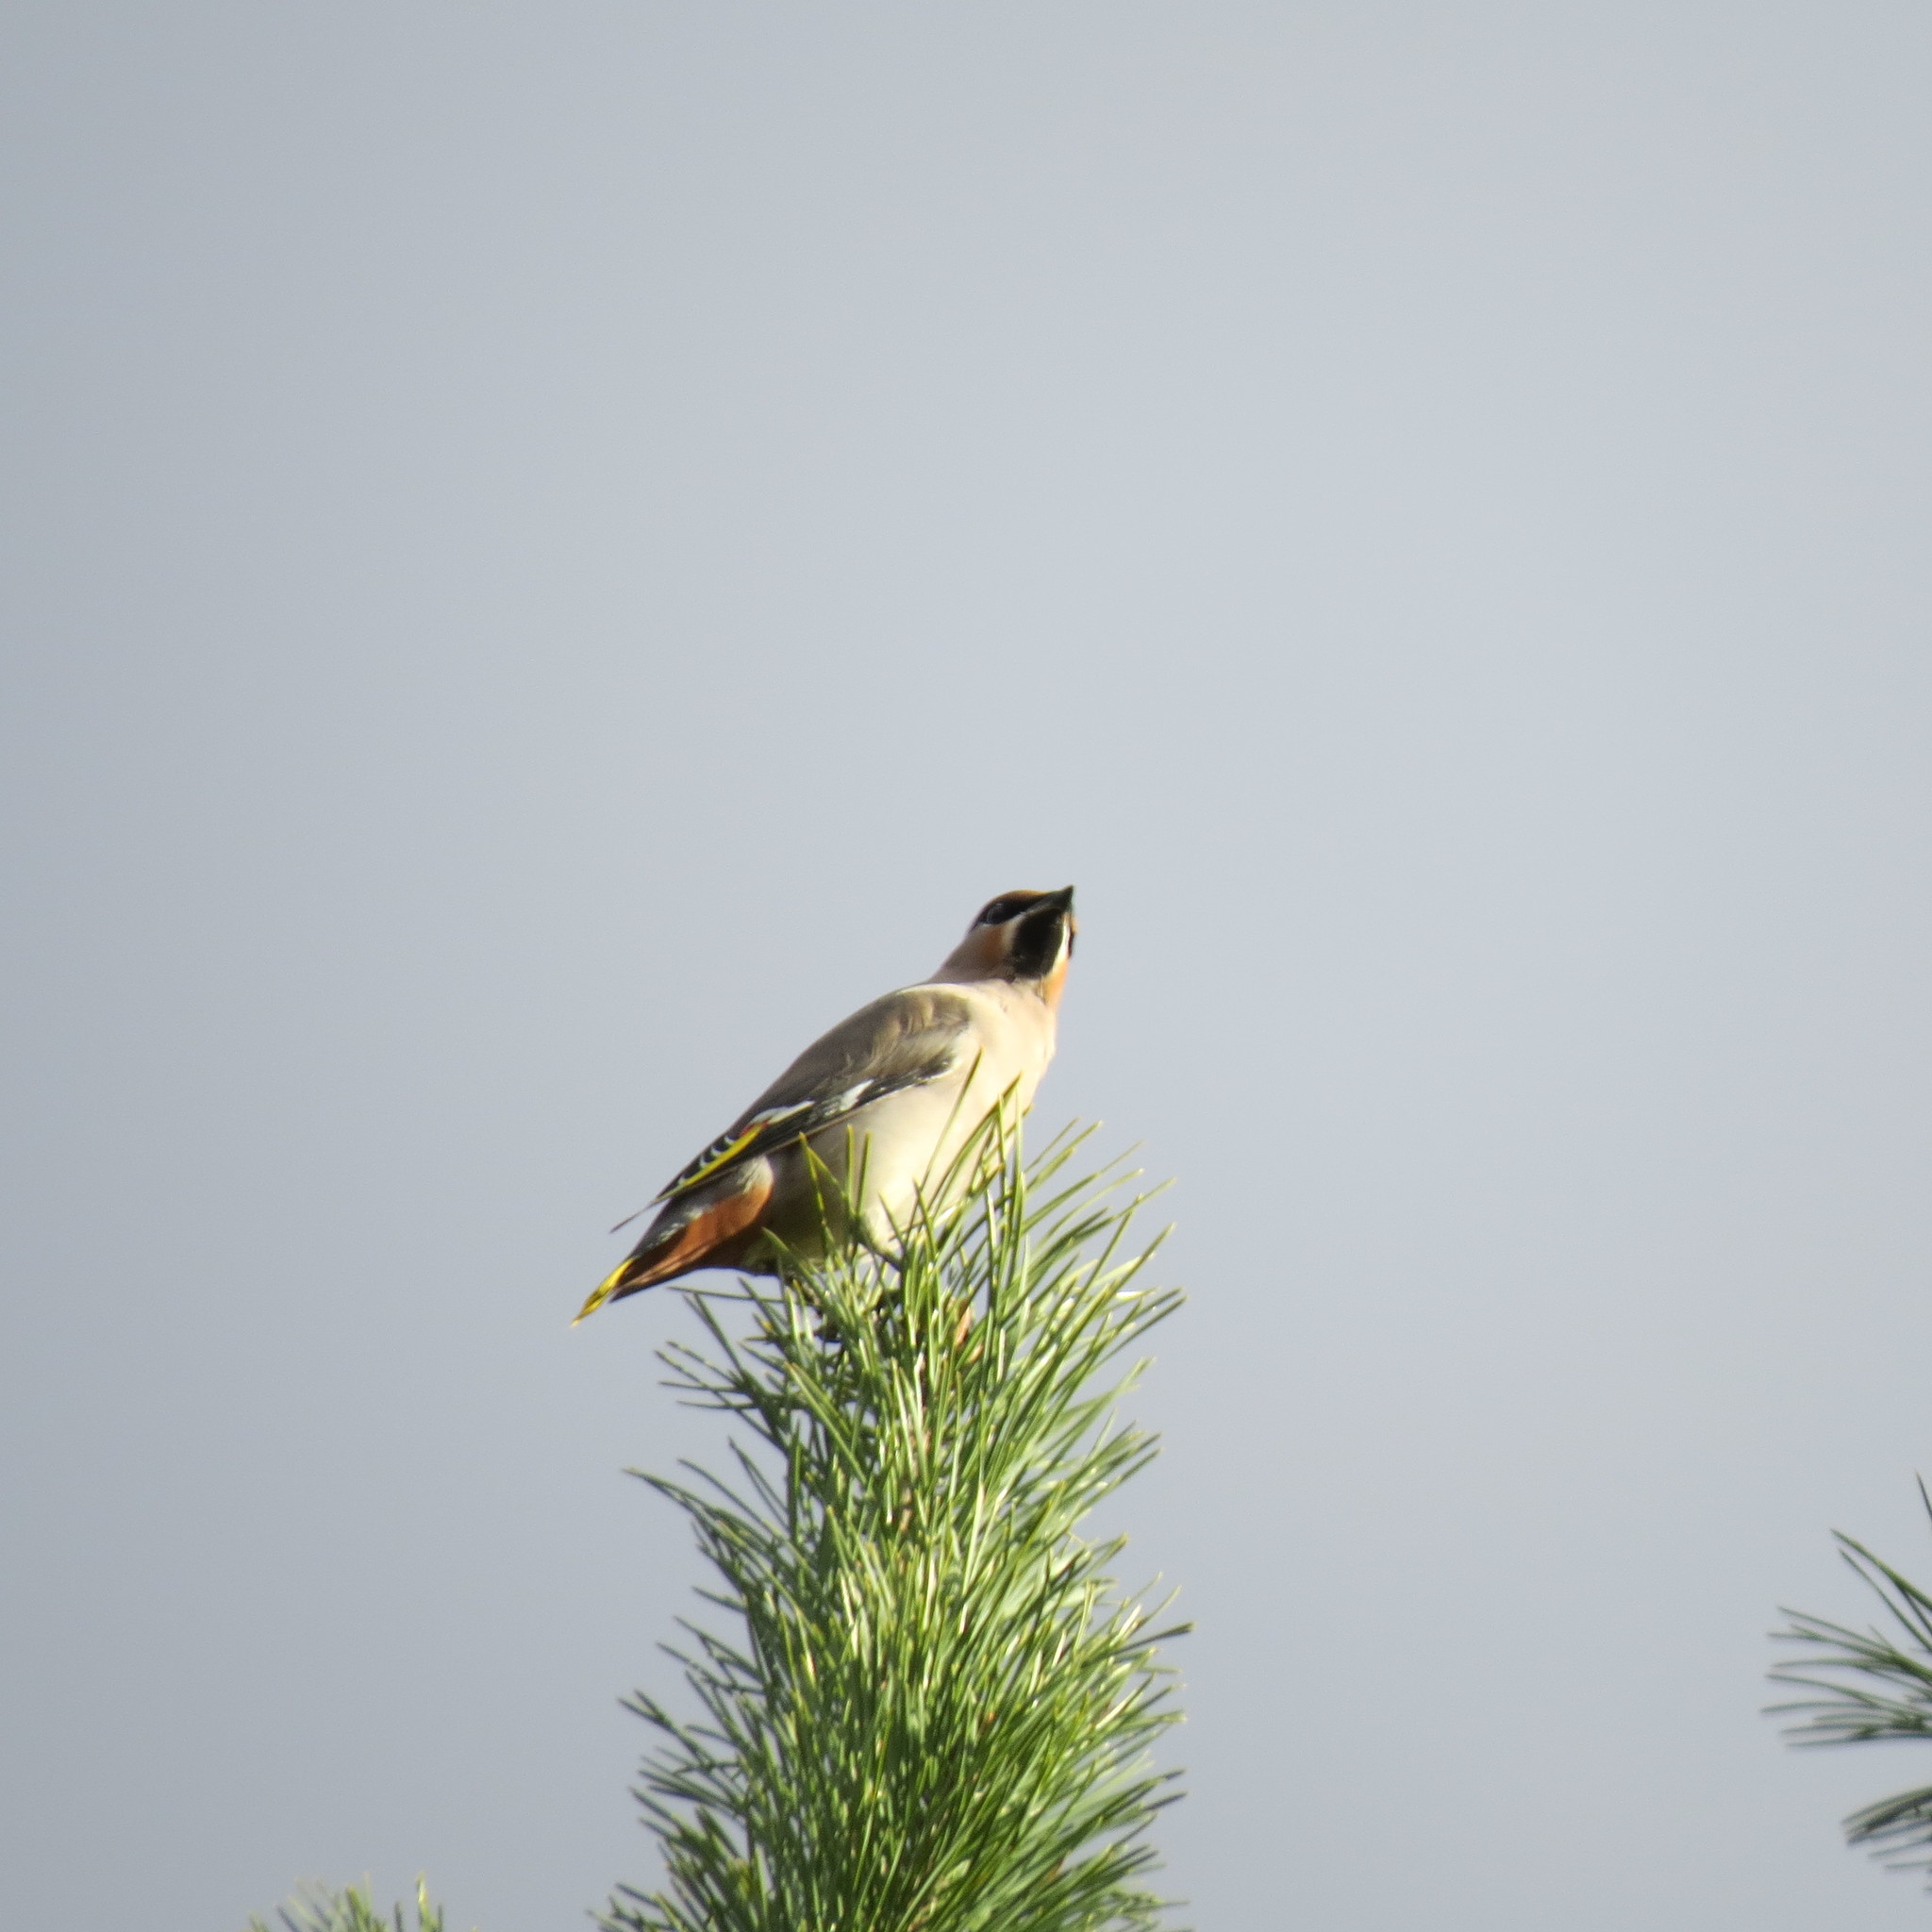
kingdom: Animalia
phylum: Chordata
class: Aves
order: Passeriformes
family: Bombycillidae
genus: Bombycilla
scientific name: Bombycilla garrulus
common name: Bohemian waxwing
